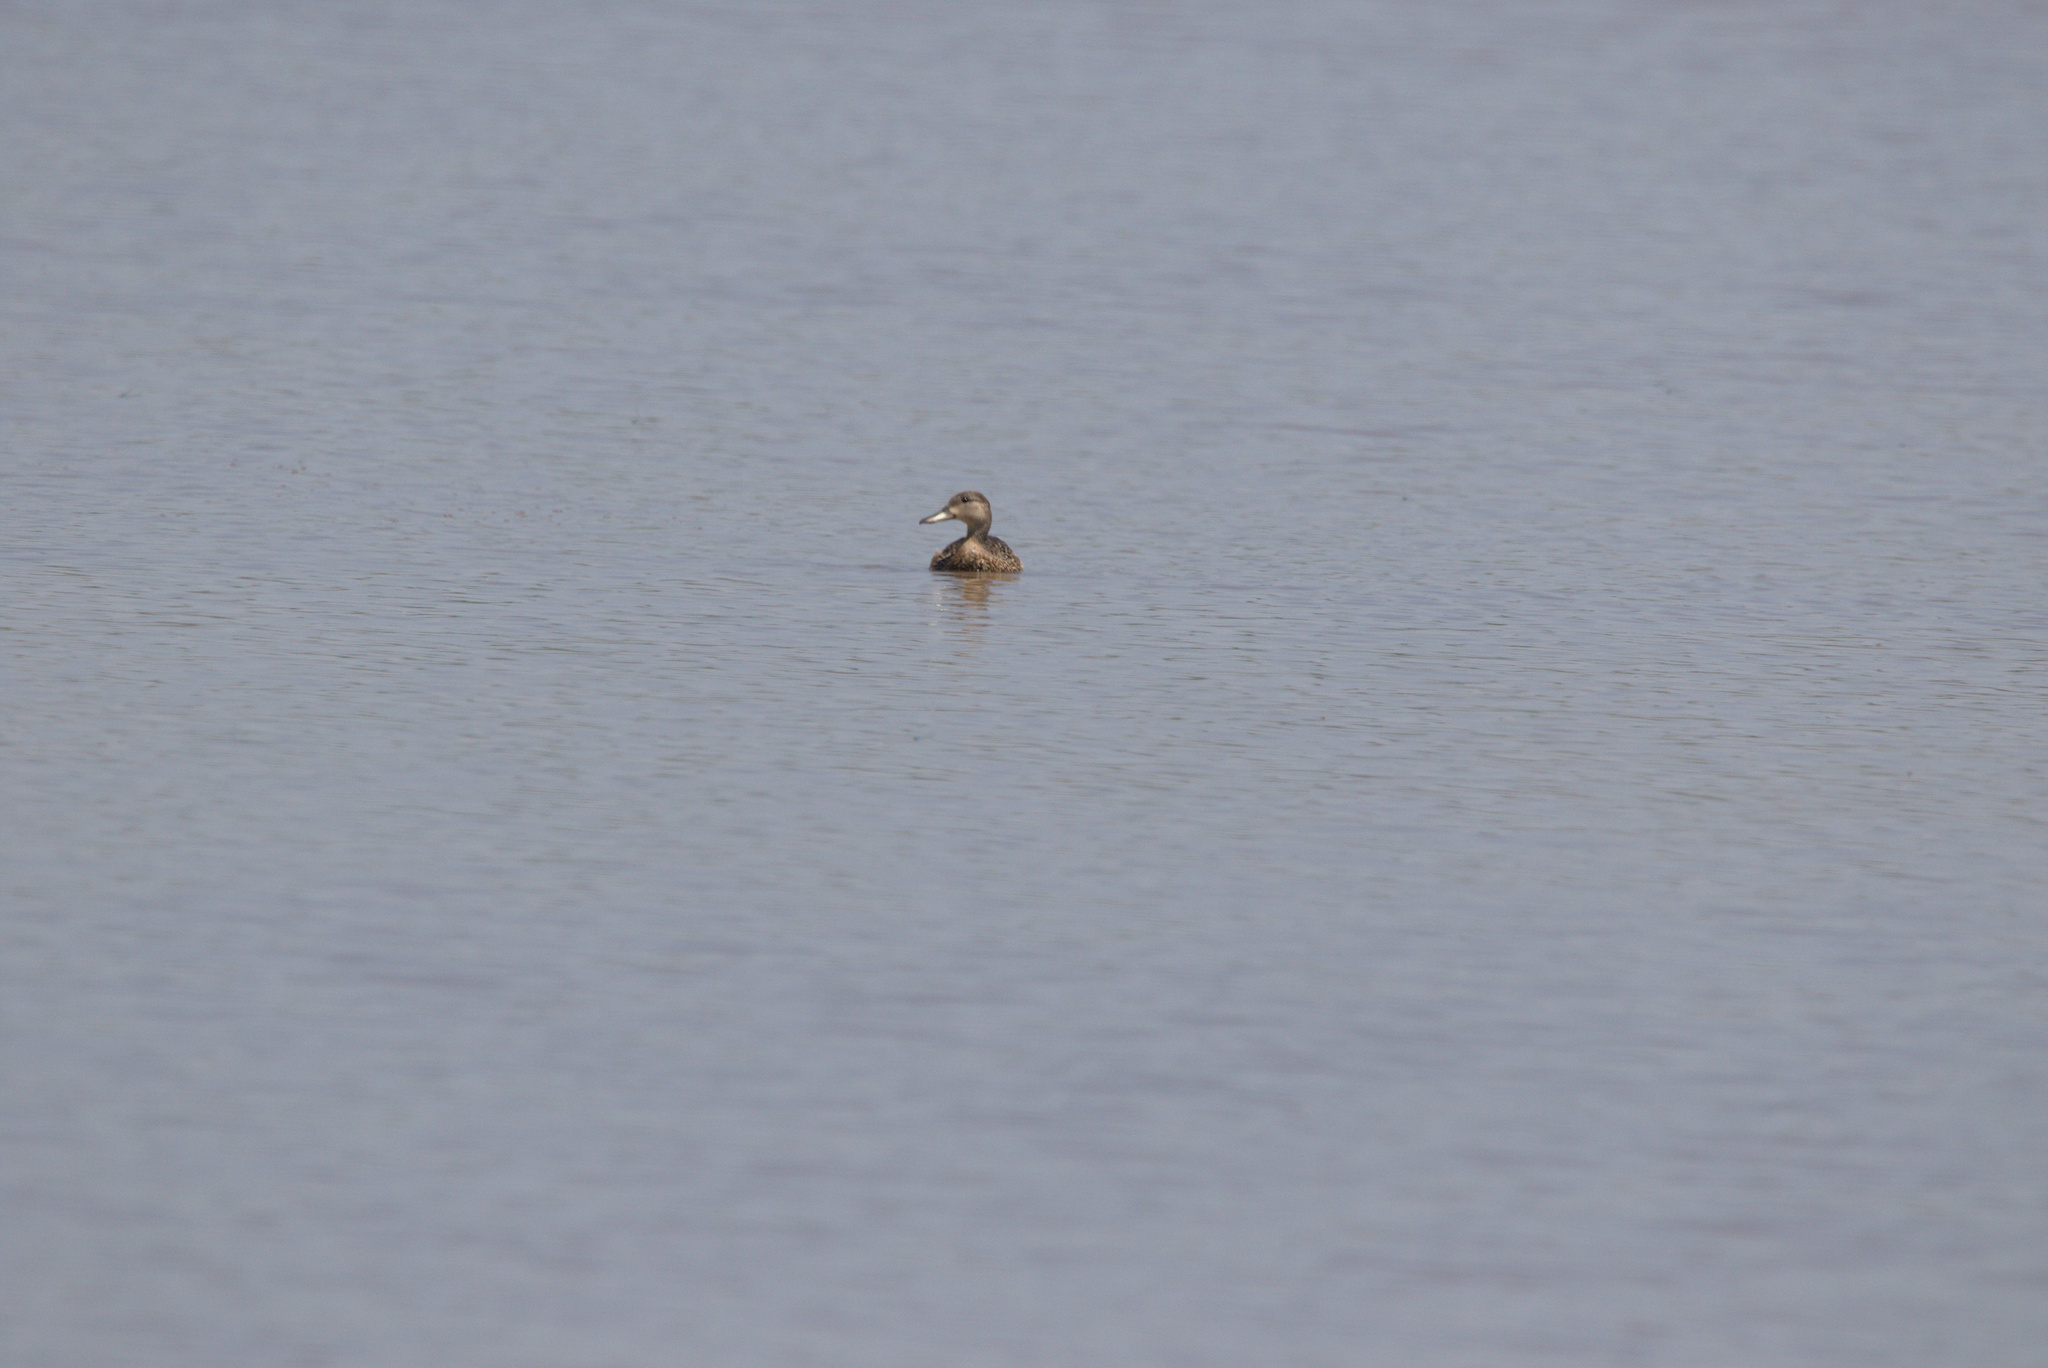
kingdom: Animalia
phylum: Chordata
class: Aves
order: Anseriformes
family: Anatidae
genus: Spatula
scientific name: Spatula discors
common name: Blue-winged teal
